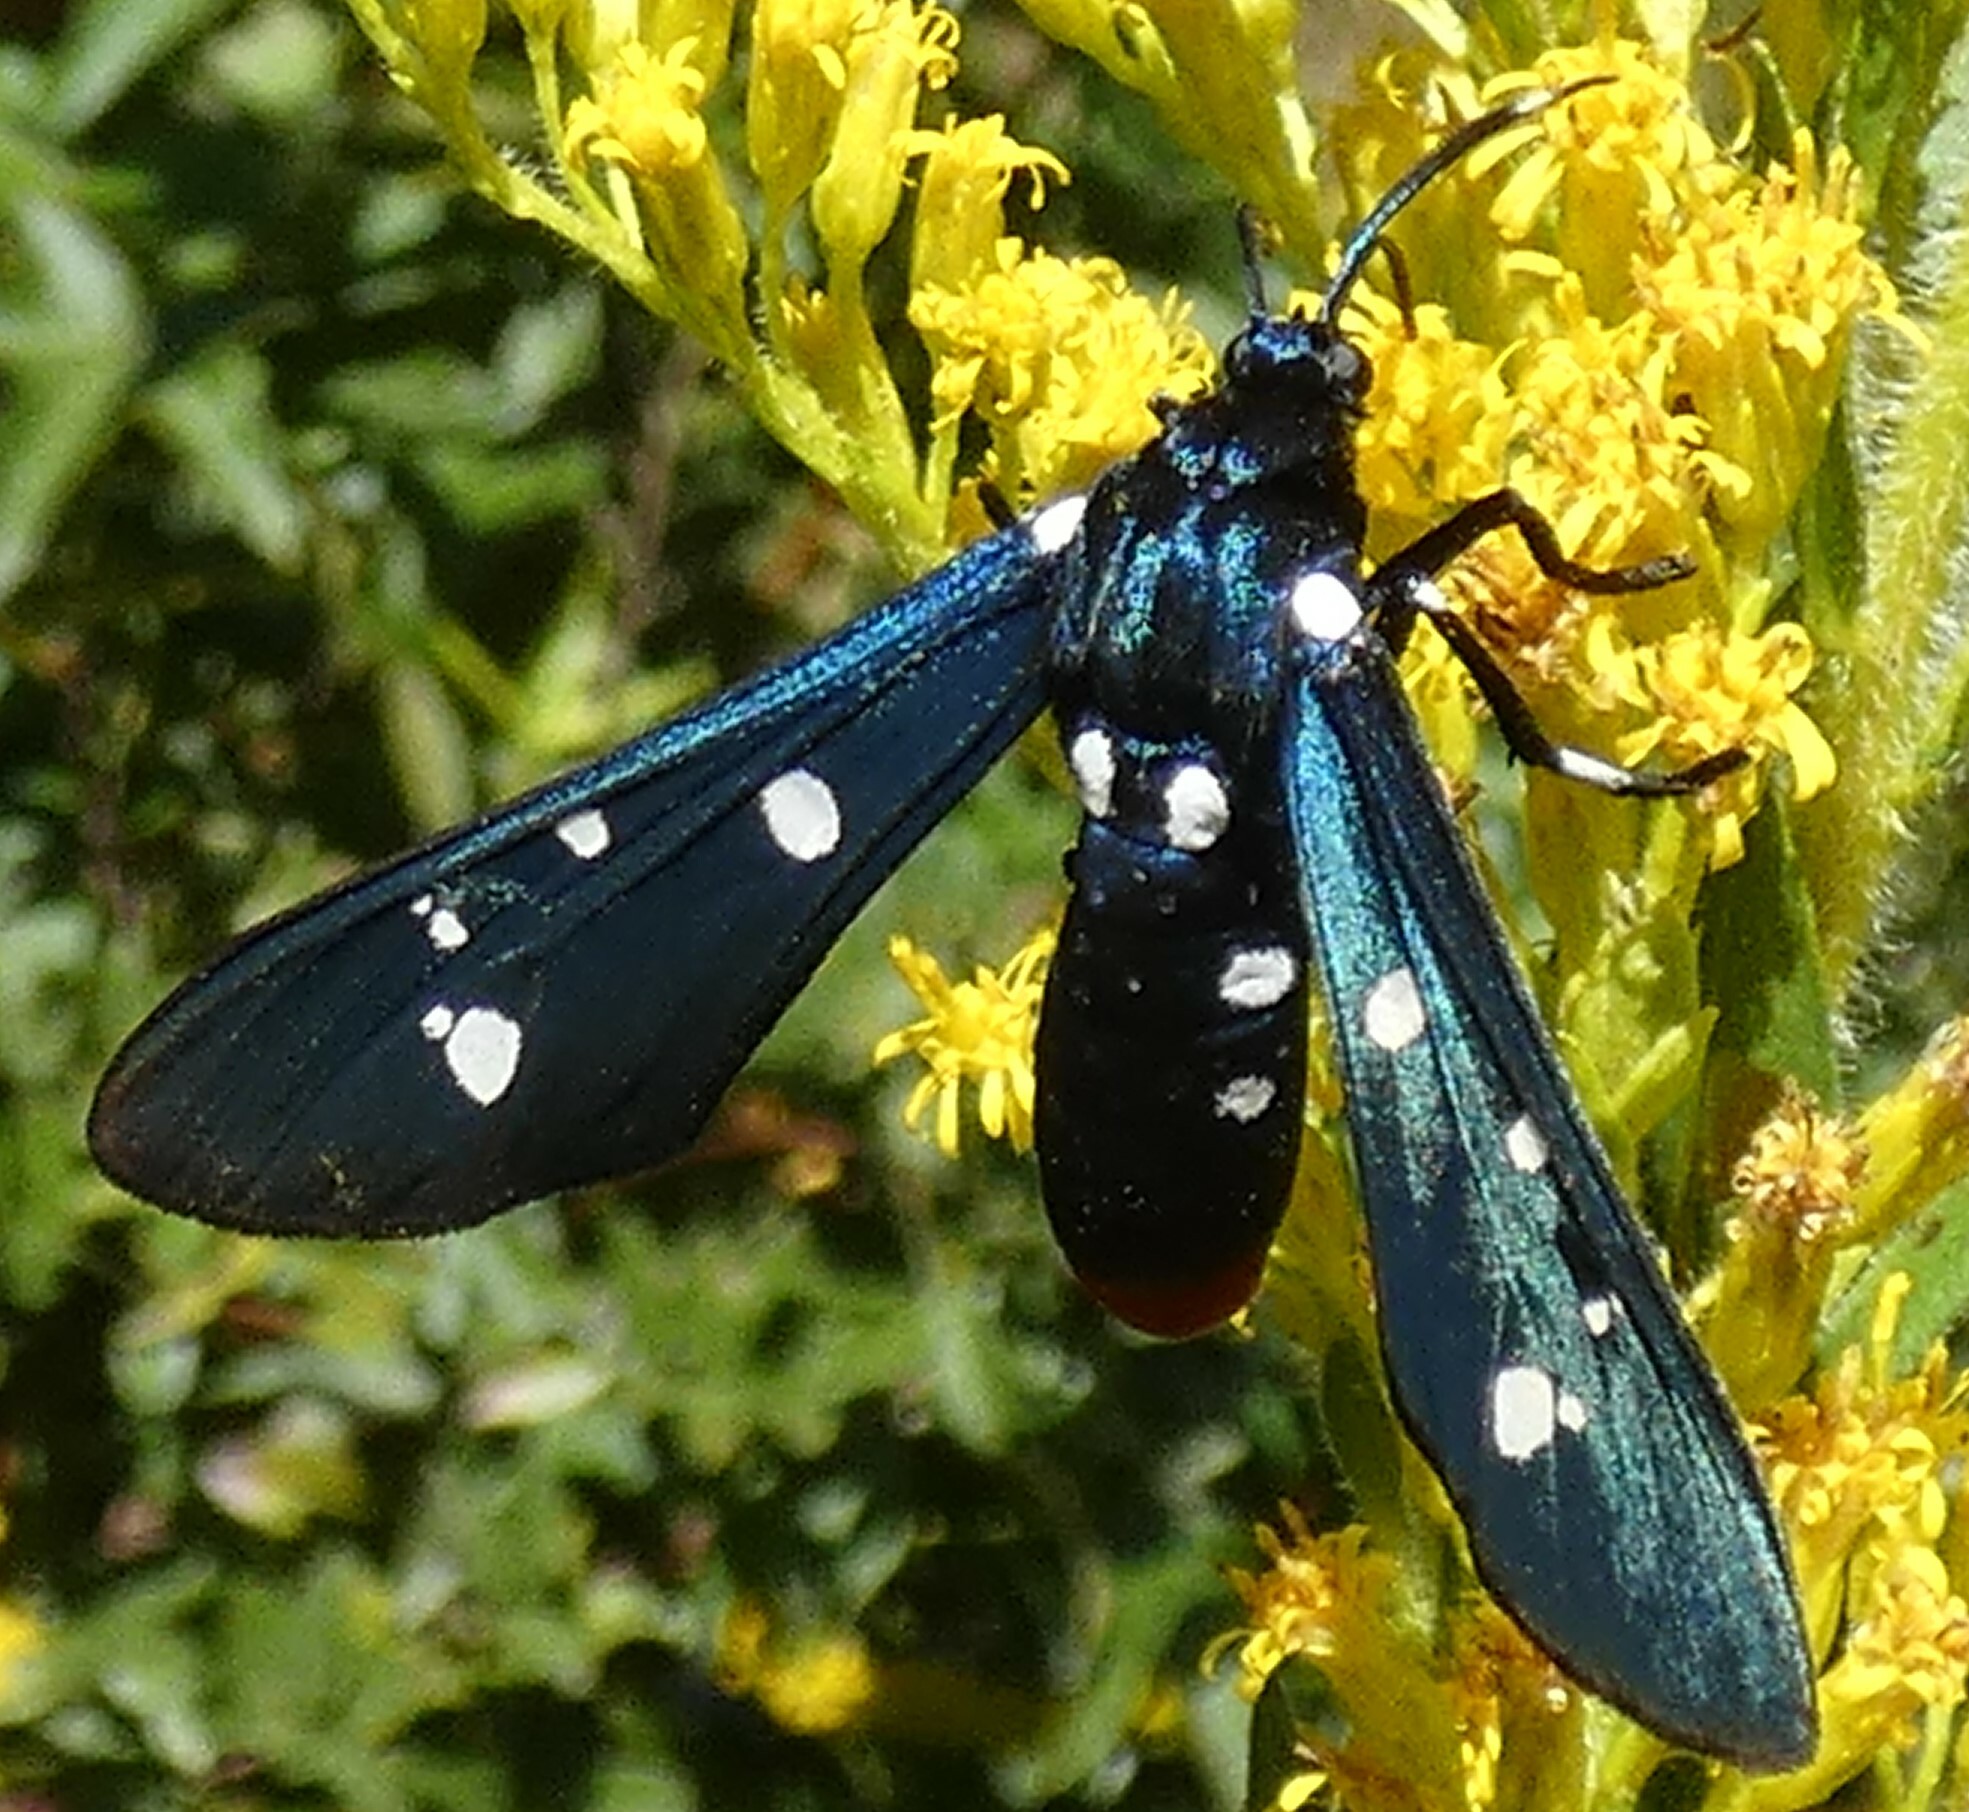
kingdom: Animalia
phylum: Arthropoda
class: Insecta
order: Lepidoptera
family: Erebidae
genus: Syntomeida
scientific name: Syntomeida epilais
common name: Polka-dot wasp moth
